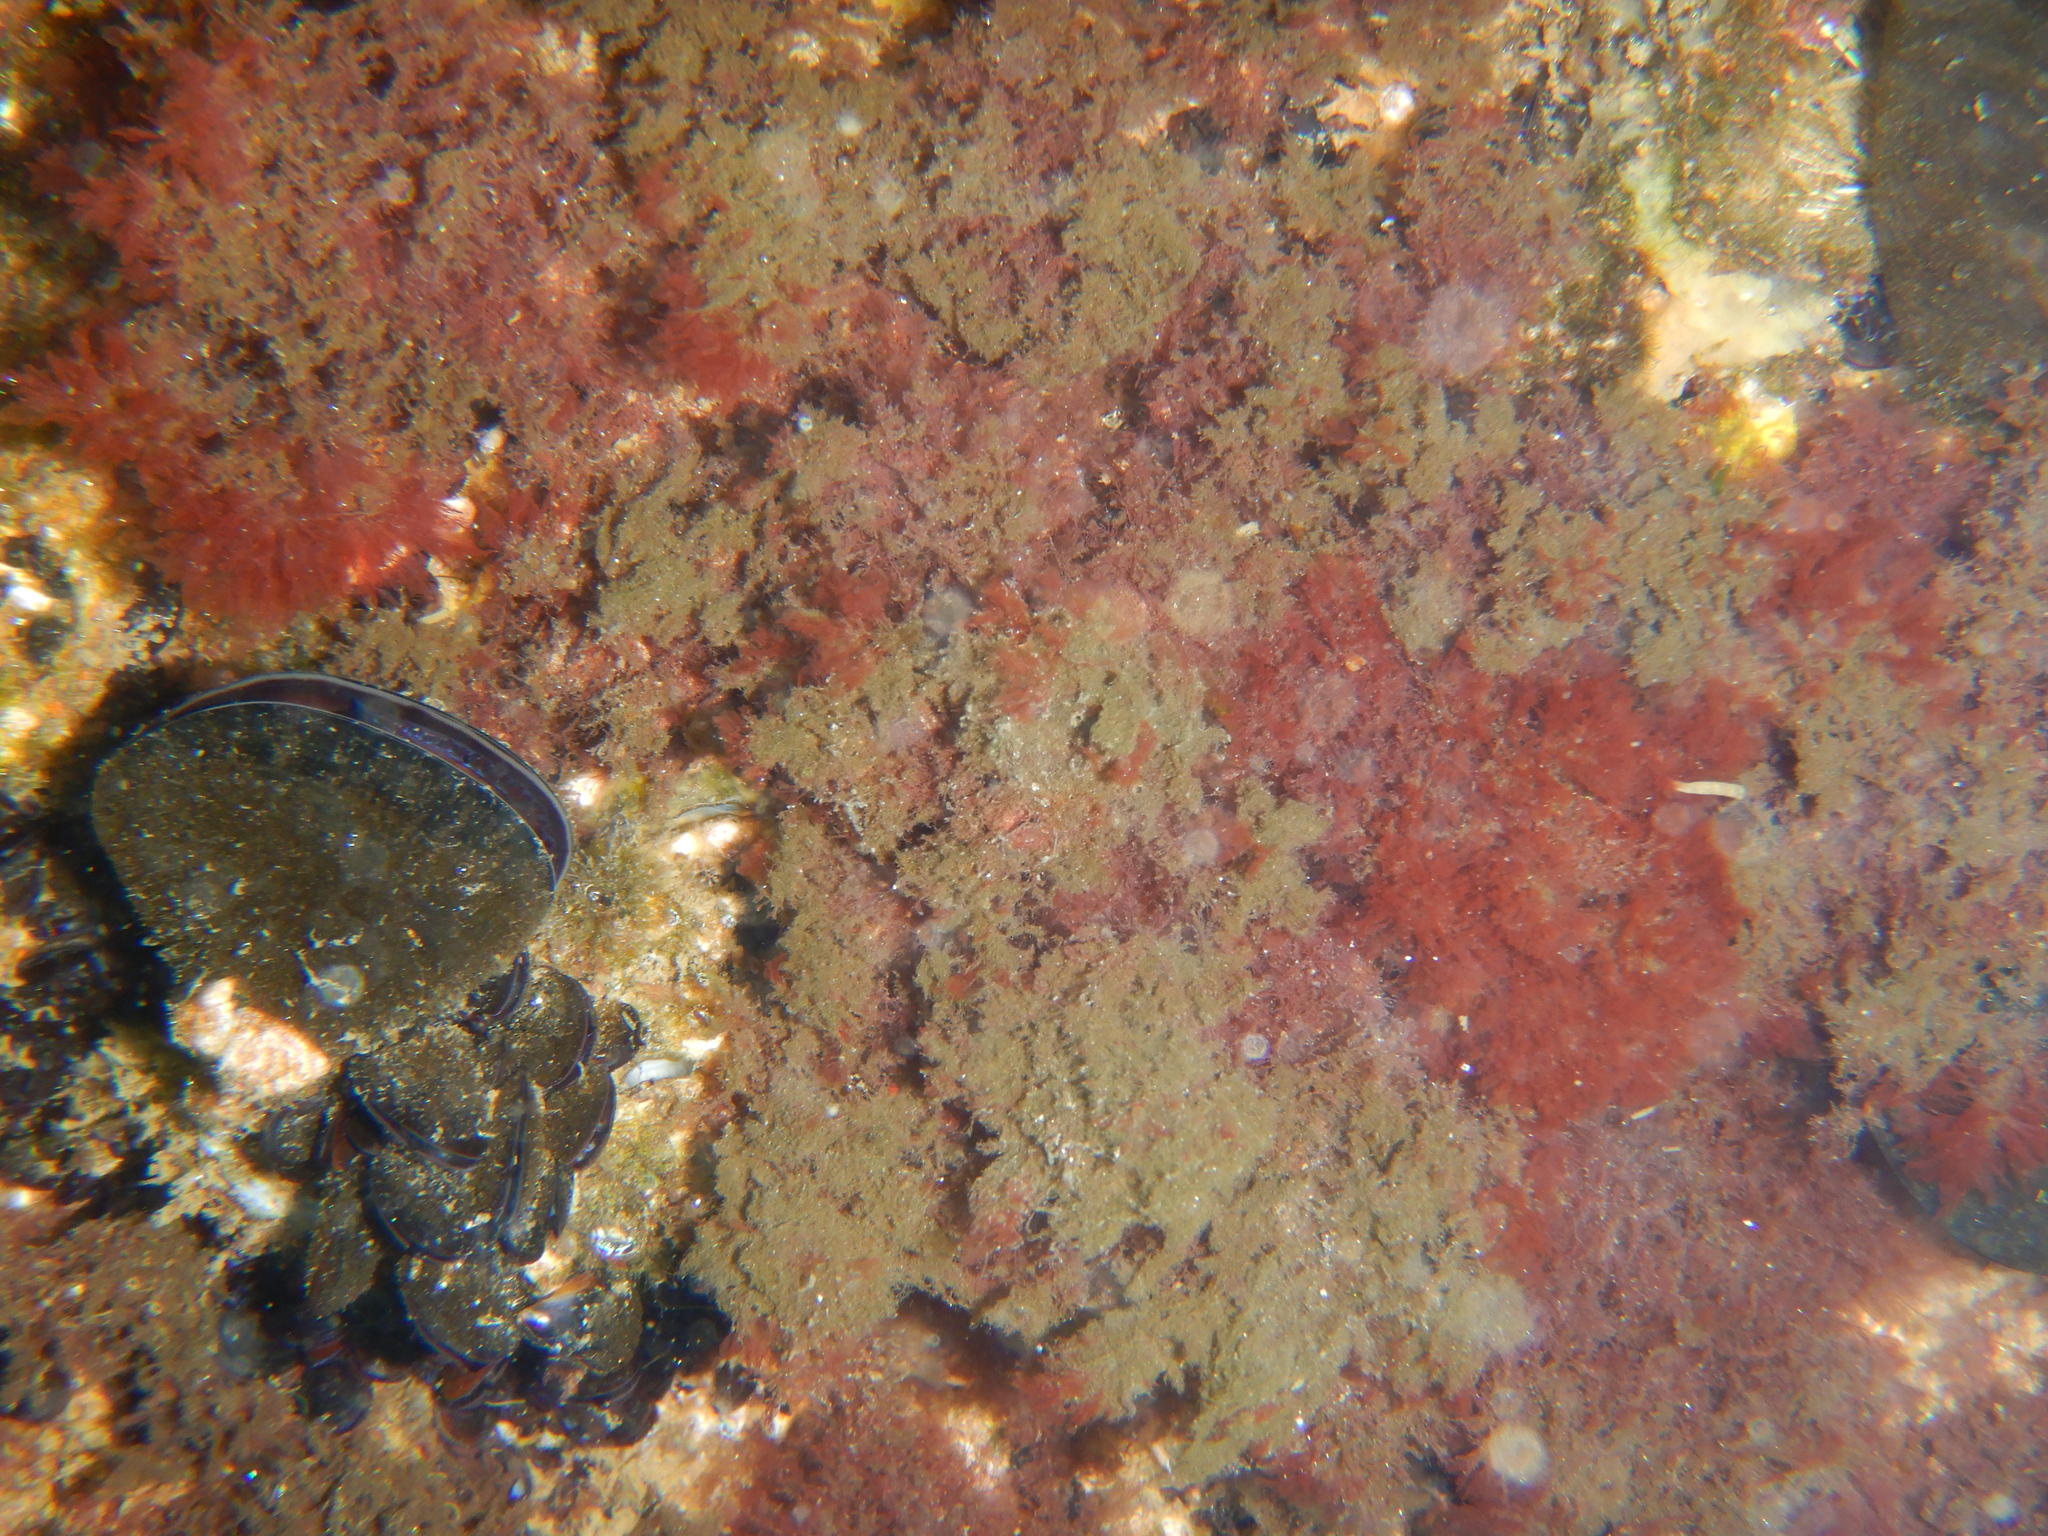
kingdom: Animalia
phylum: Mollusca
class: Bivalvia
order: Mytilida
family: Mytilidae
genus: Mytilus
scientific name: Mytilus galloprovincialis
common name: Mediterranean mussel
